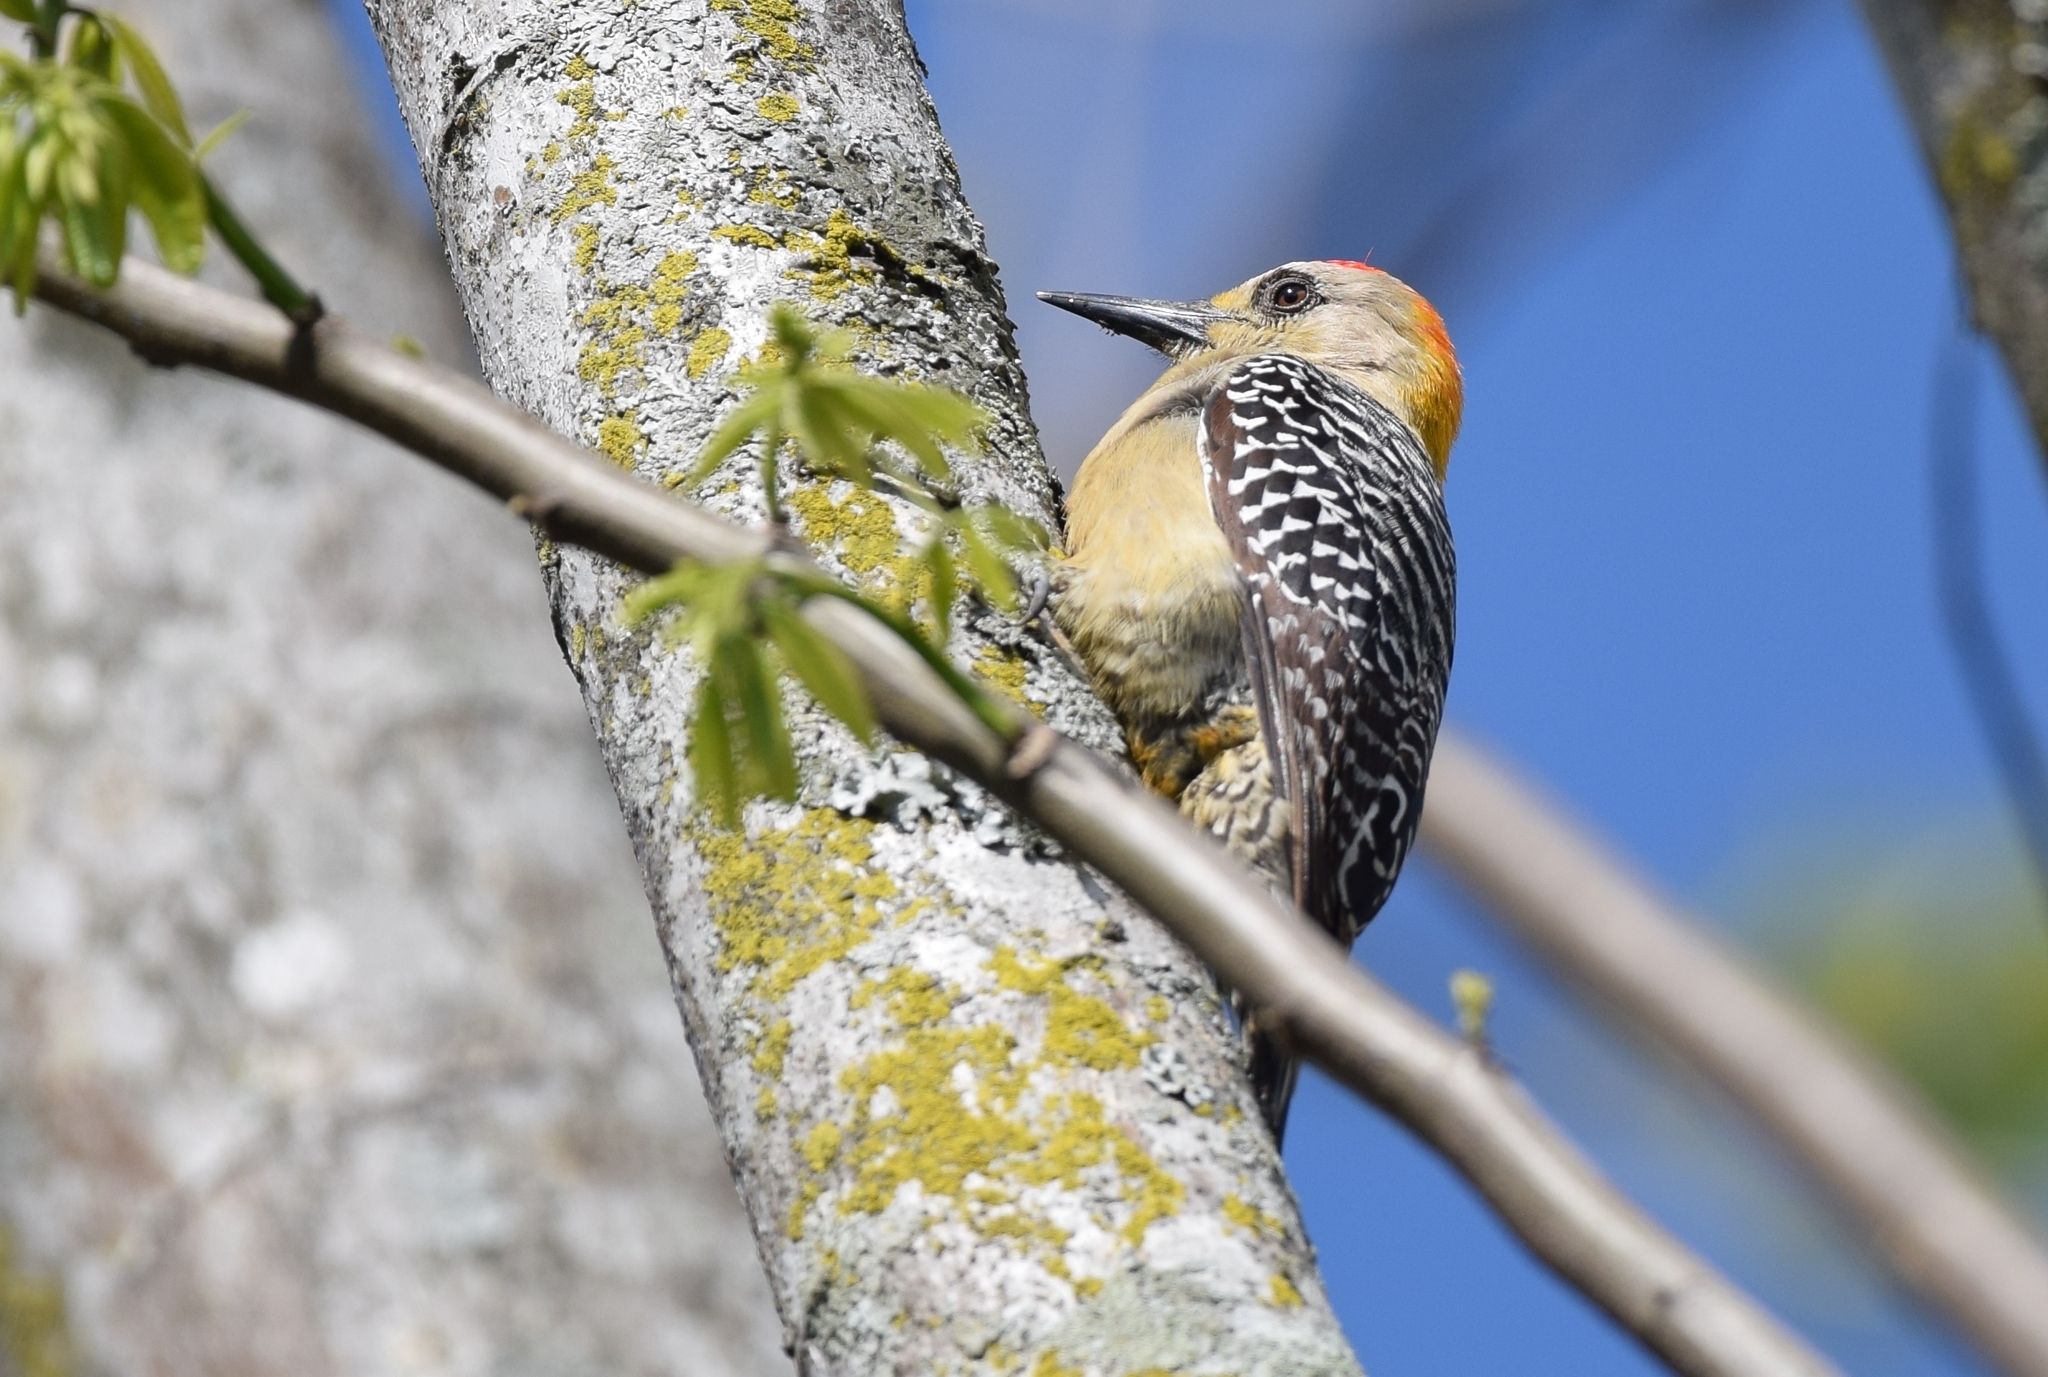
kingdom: Animalia
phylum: Chordata
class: Aves
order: Piciformes
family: Picidae
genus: Melanerpes
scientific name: Melanerpes hoffmannii
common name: Hoffmann's woodpecker
